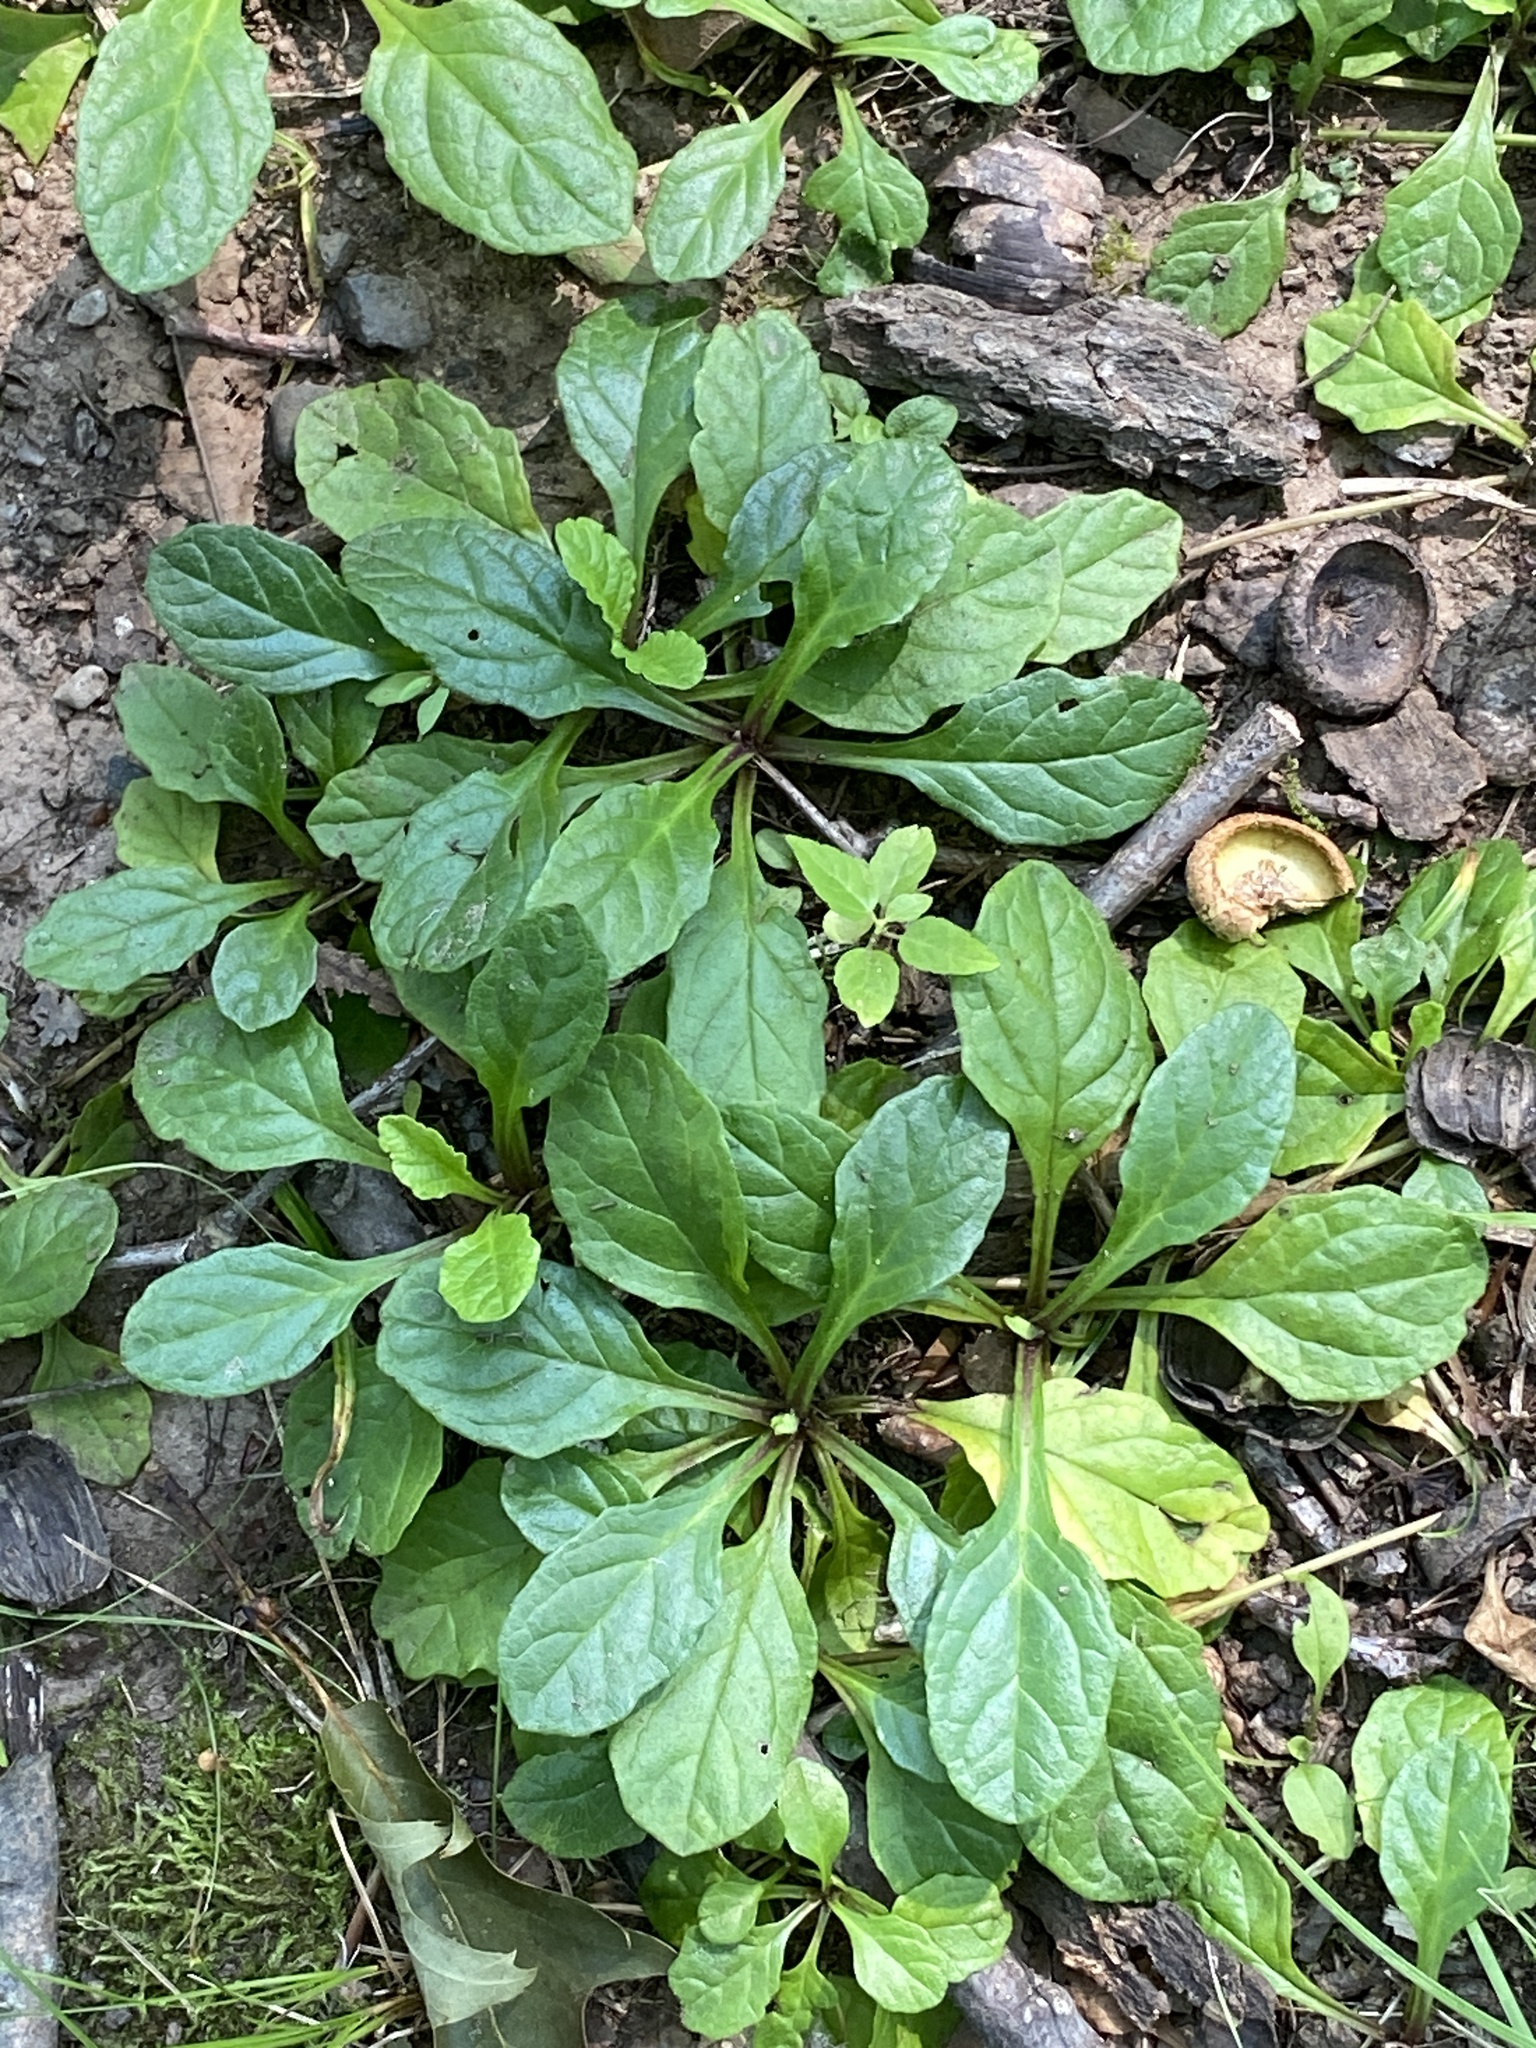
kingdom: Plantae
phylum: Tracheophyta
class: Magnoliopsida
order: Lamiales
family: Lamiaceae
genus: Ajuga
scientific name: Ajuga reptans
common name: Bugle
